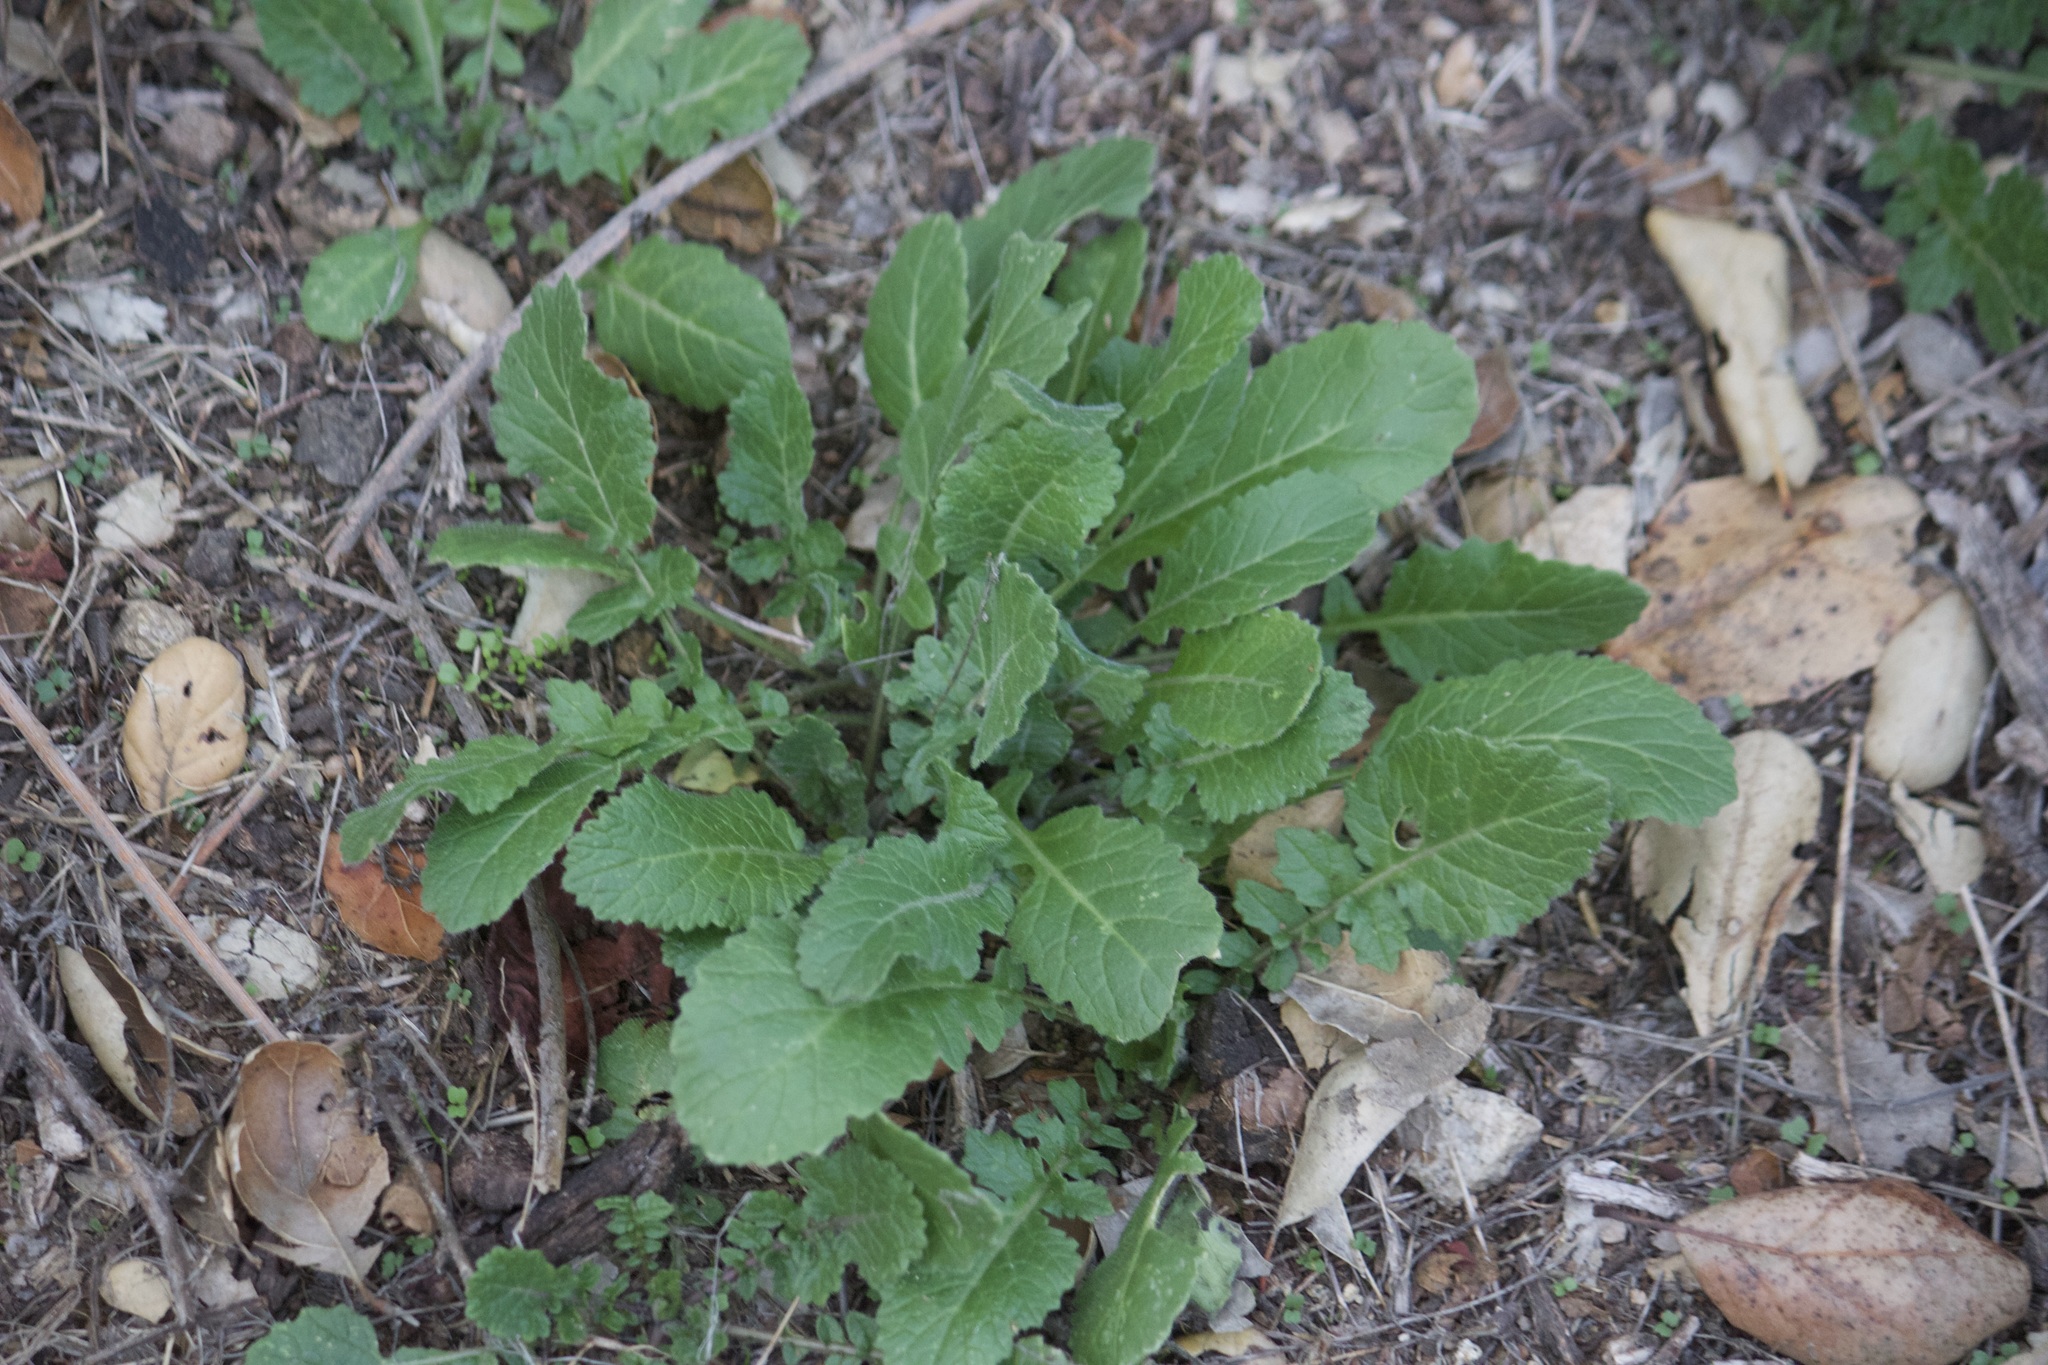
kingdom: Plantae
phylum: Tracheophyta
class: Magnoliopsida
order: Brassicales
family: Brassicaceae
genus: Hirschfeldia
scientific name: Hirschfeldia incana
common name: Hoary mustard
